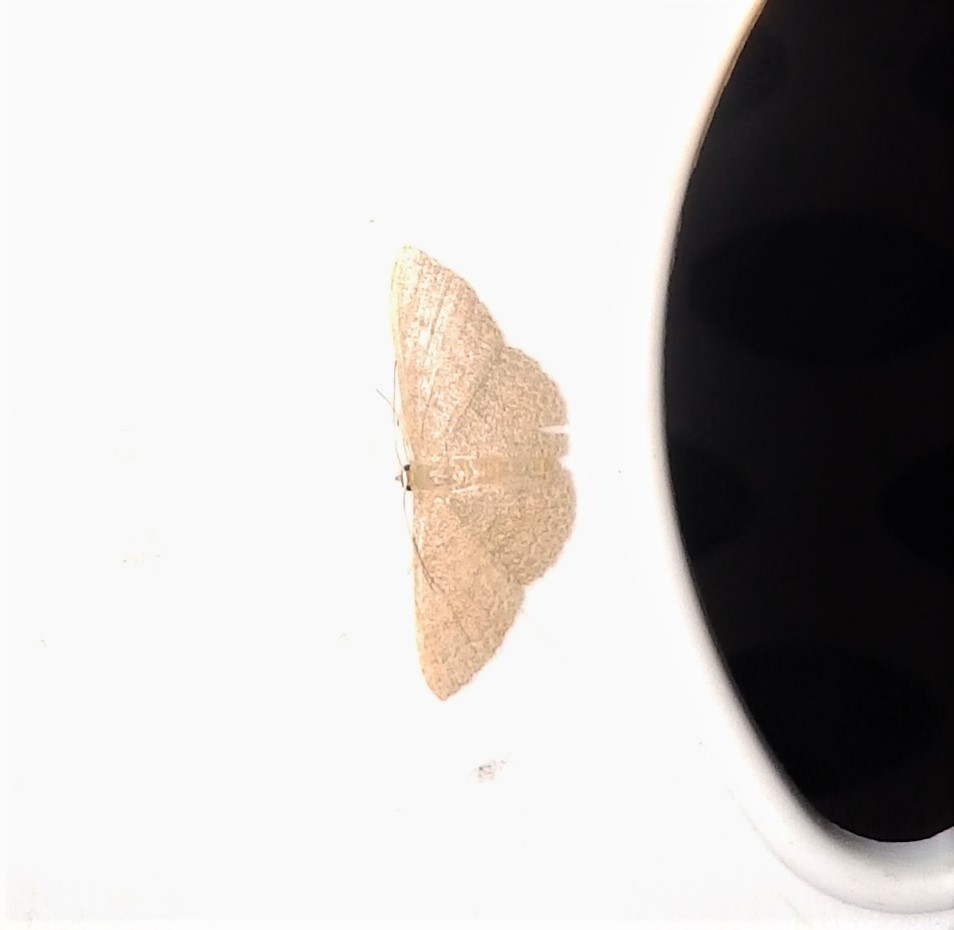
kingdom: Animalia
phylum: Arthropoda
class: Insecta
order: Lepidoptera
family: Geometridae
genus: Pleuroprucha
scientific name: Pleuroprucha insulsaria
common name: Common tan wave
